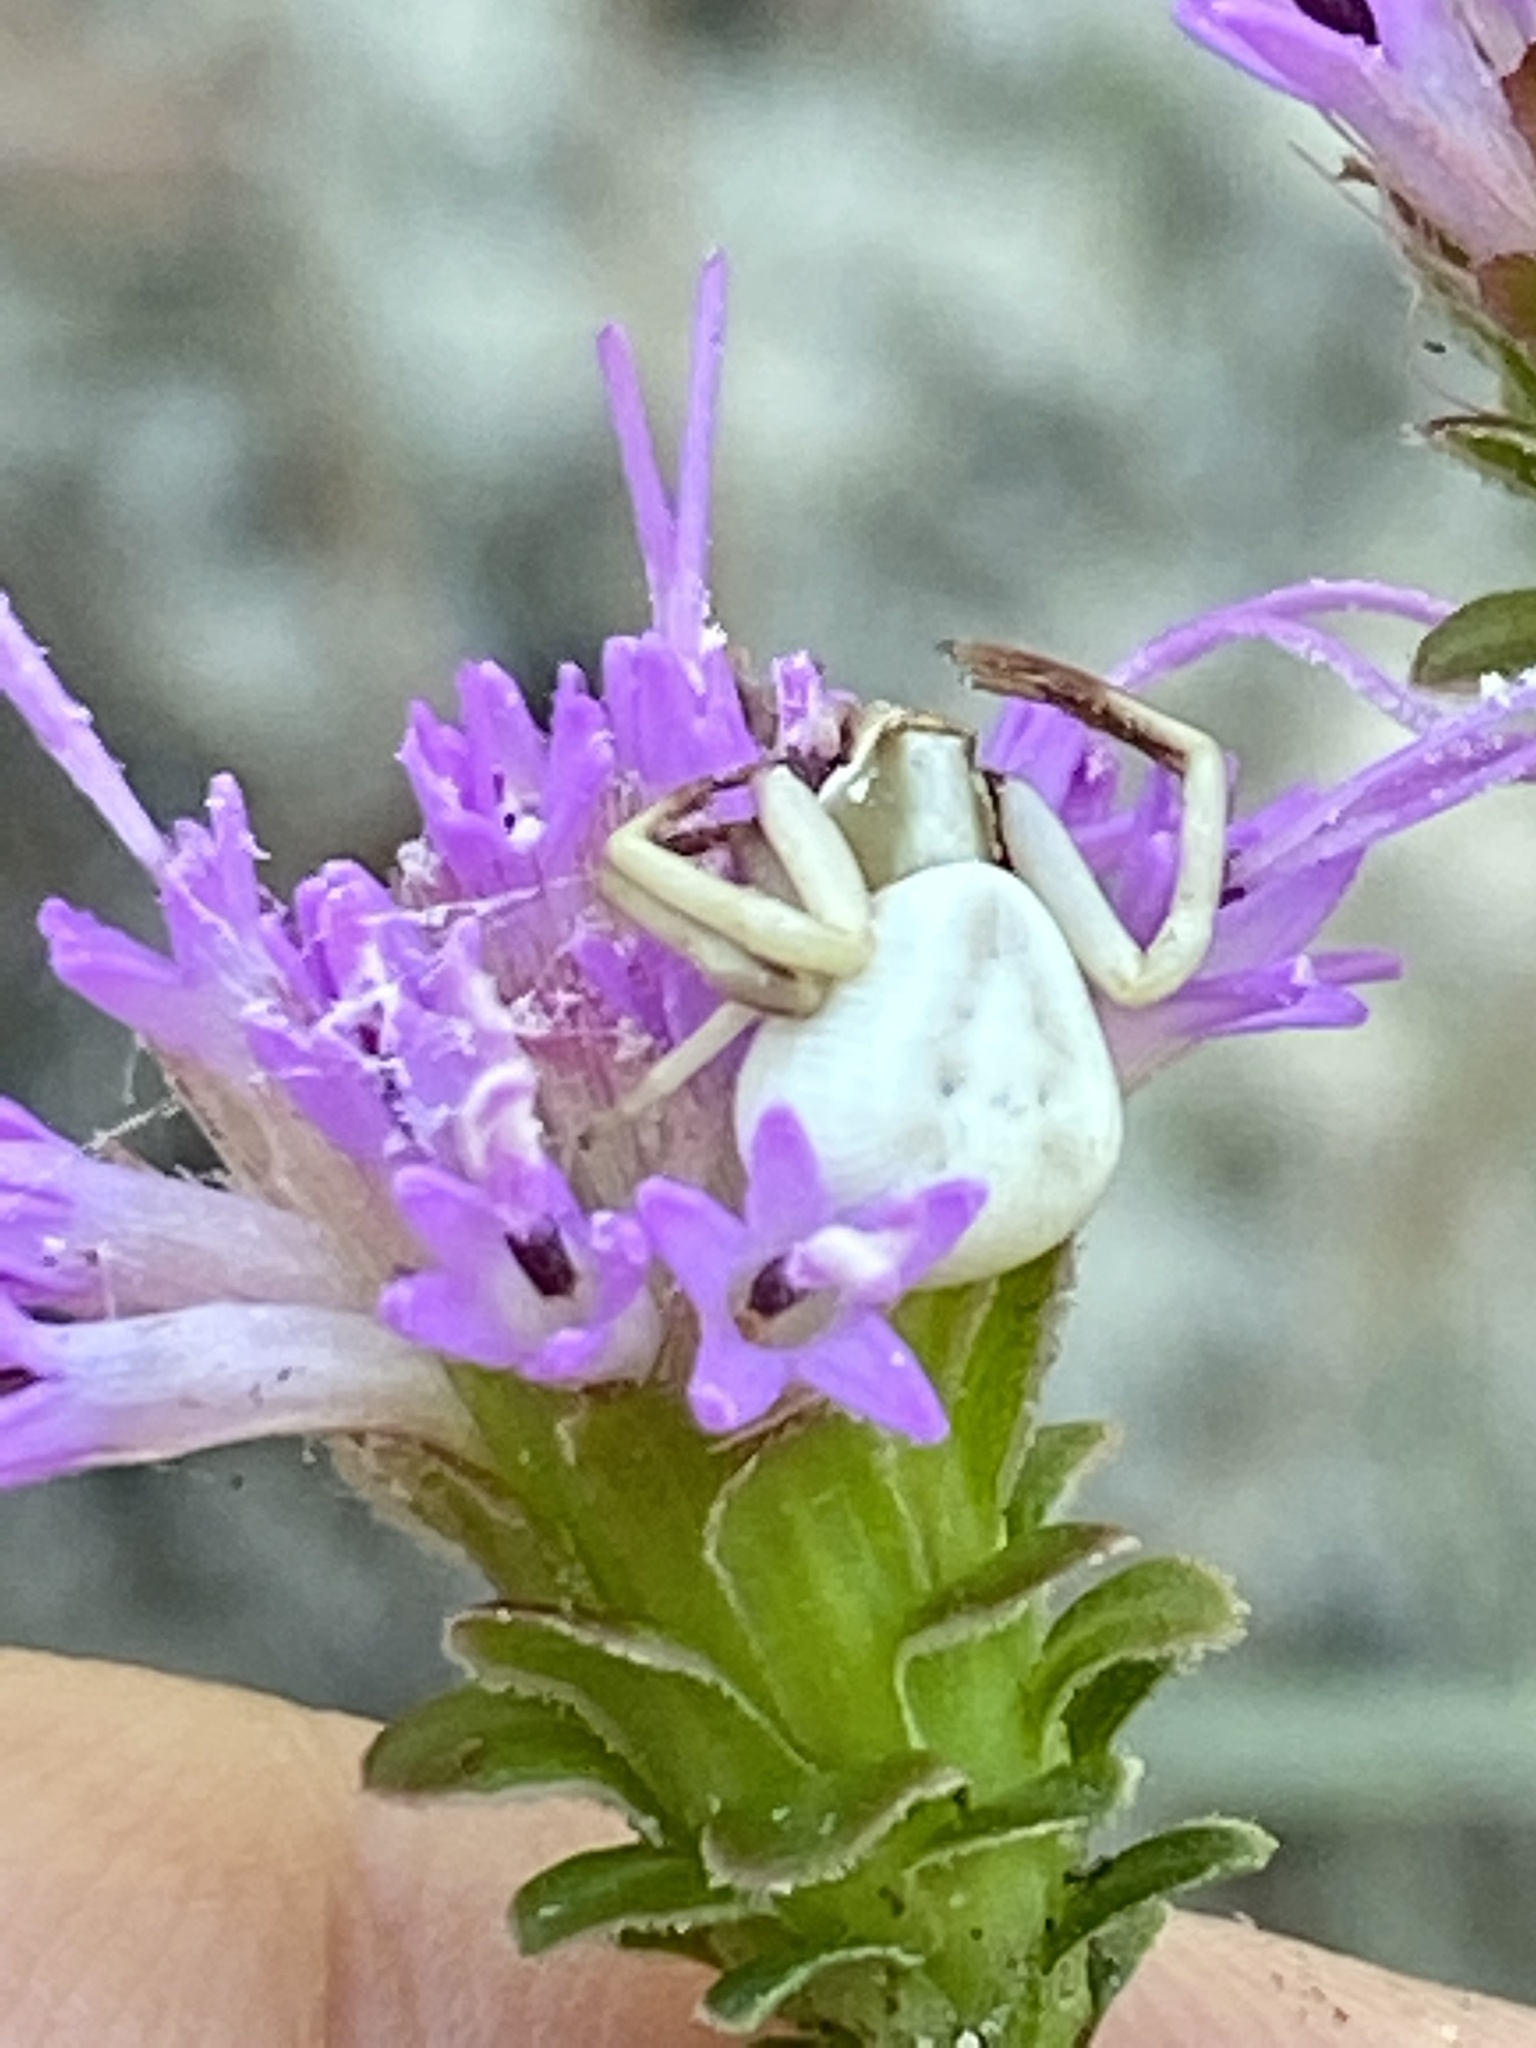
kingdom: Animalia
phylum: Arthropoda
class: Arachnida
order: Araneae
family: Thomisidae
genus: Misumenoides
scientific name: Misumenoides formosipes
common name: White-banded crab spider
